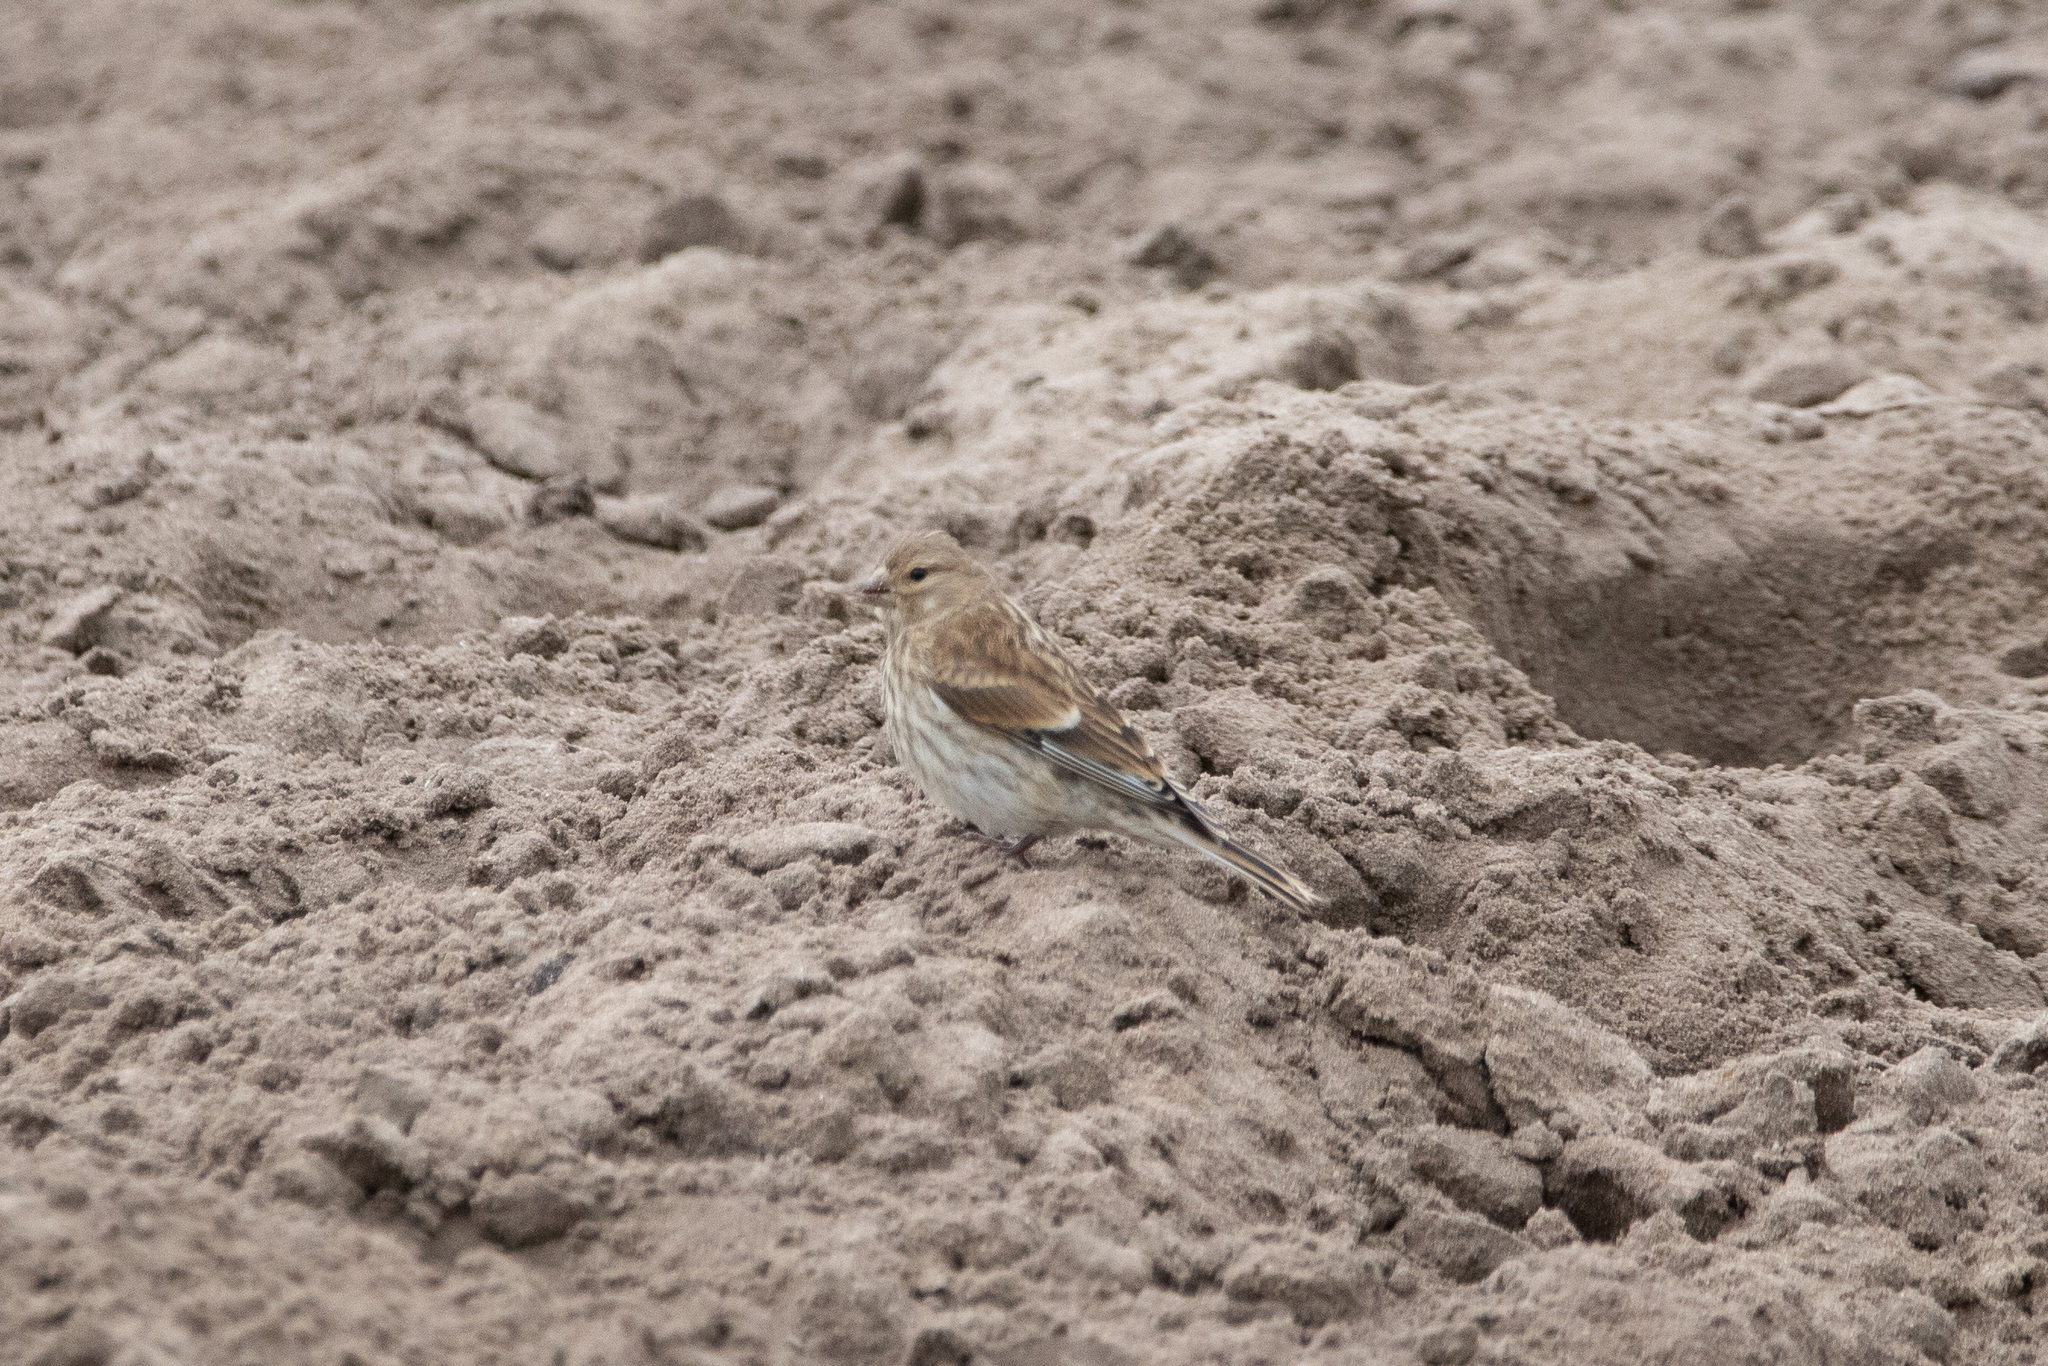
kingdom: Animalia
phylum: Chordata
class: Aves
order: Passeriformes
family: Fringillidae
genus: Linaria
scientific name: Linaria cannabina
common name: Common linnet
